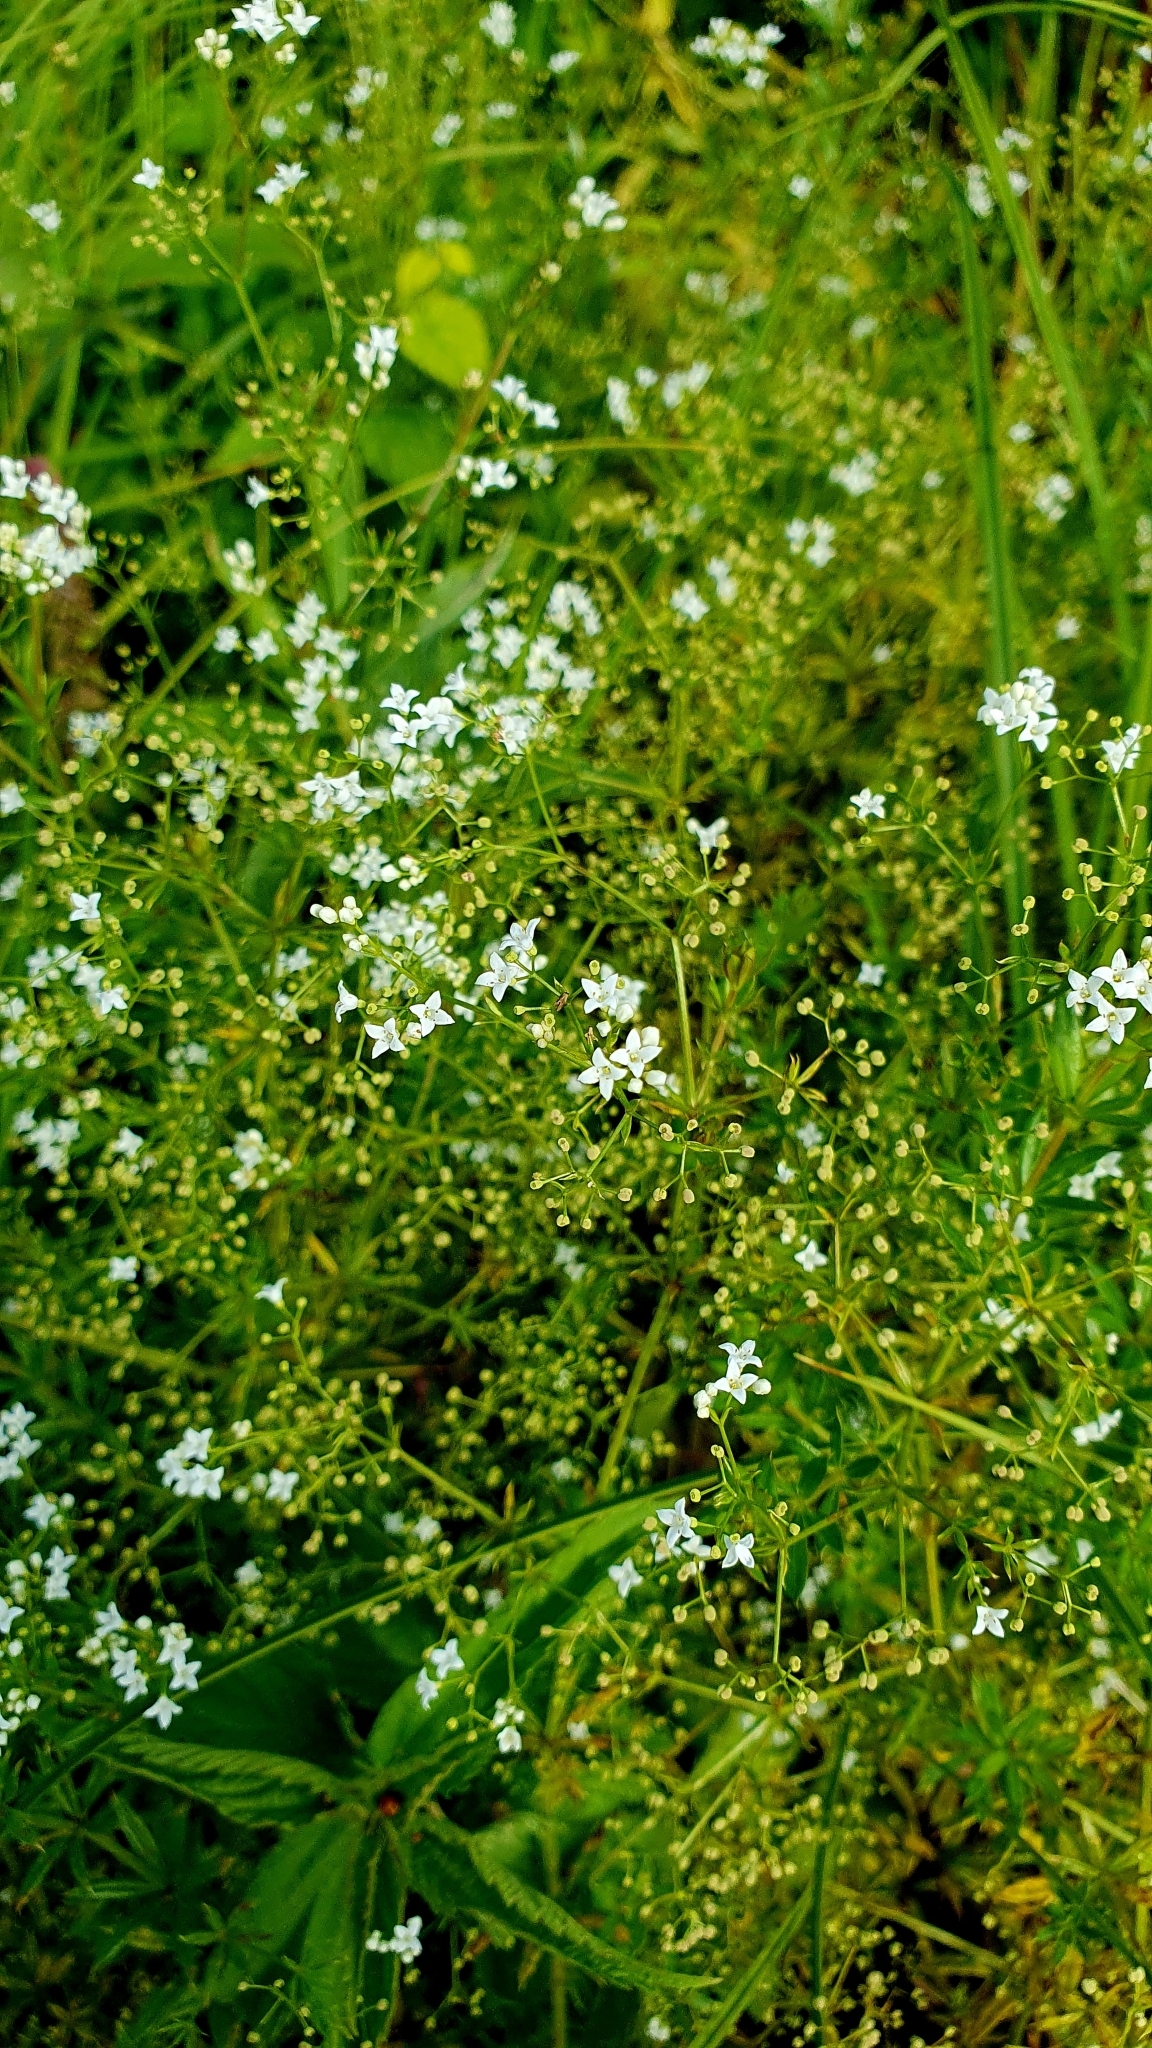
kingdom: Plantae
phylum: Tracheophyta
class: Magnoliopsida
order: Gentianales
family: Rubiaceae
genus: Galium
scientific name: Galium rivale
